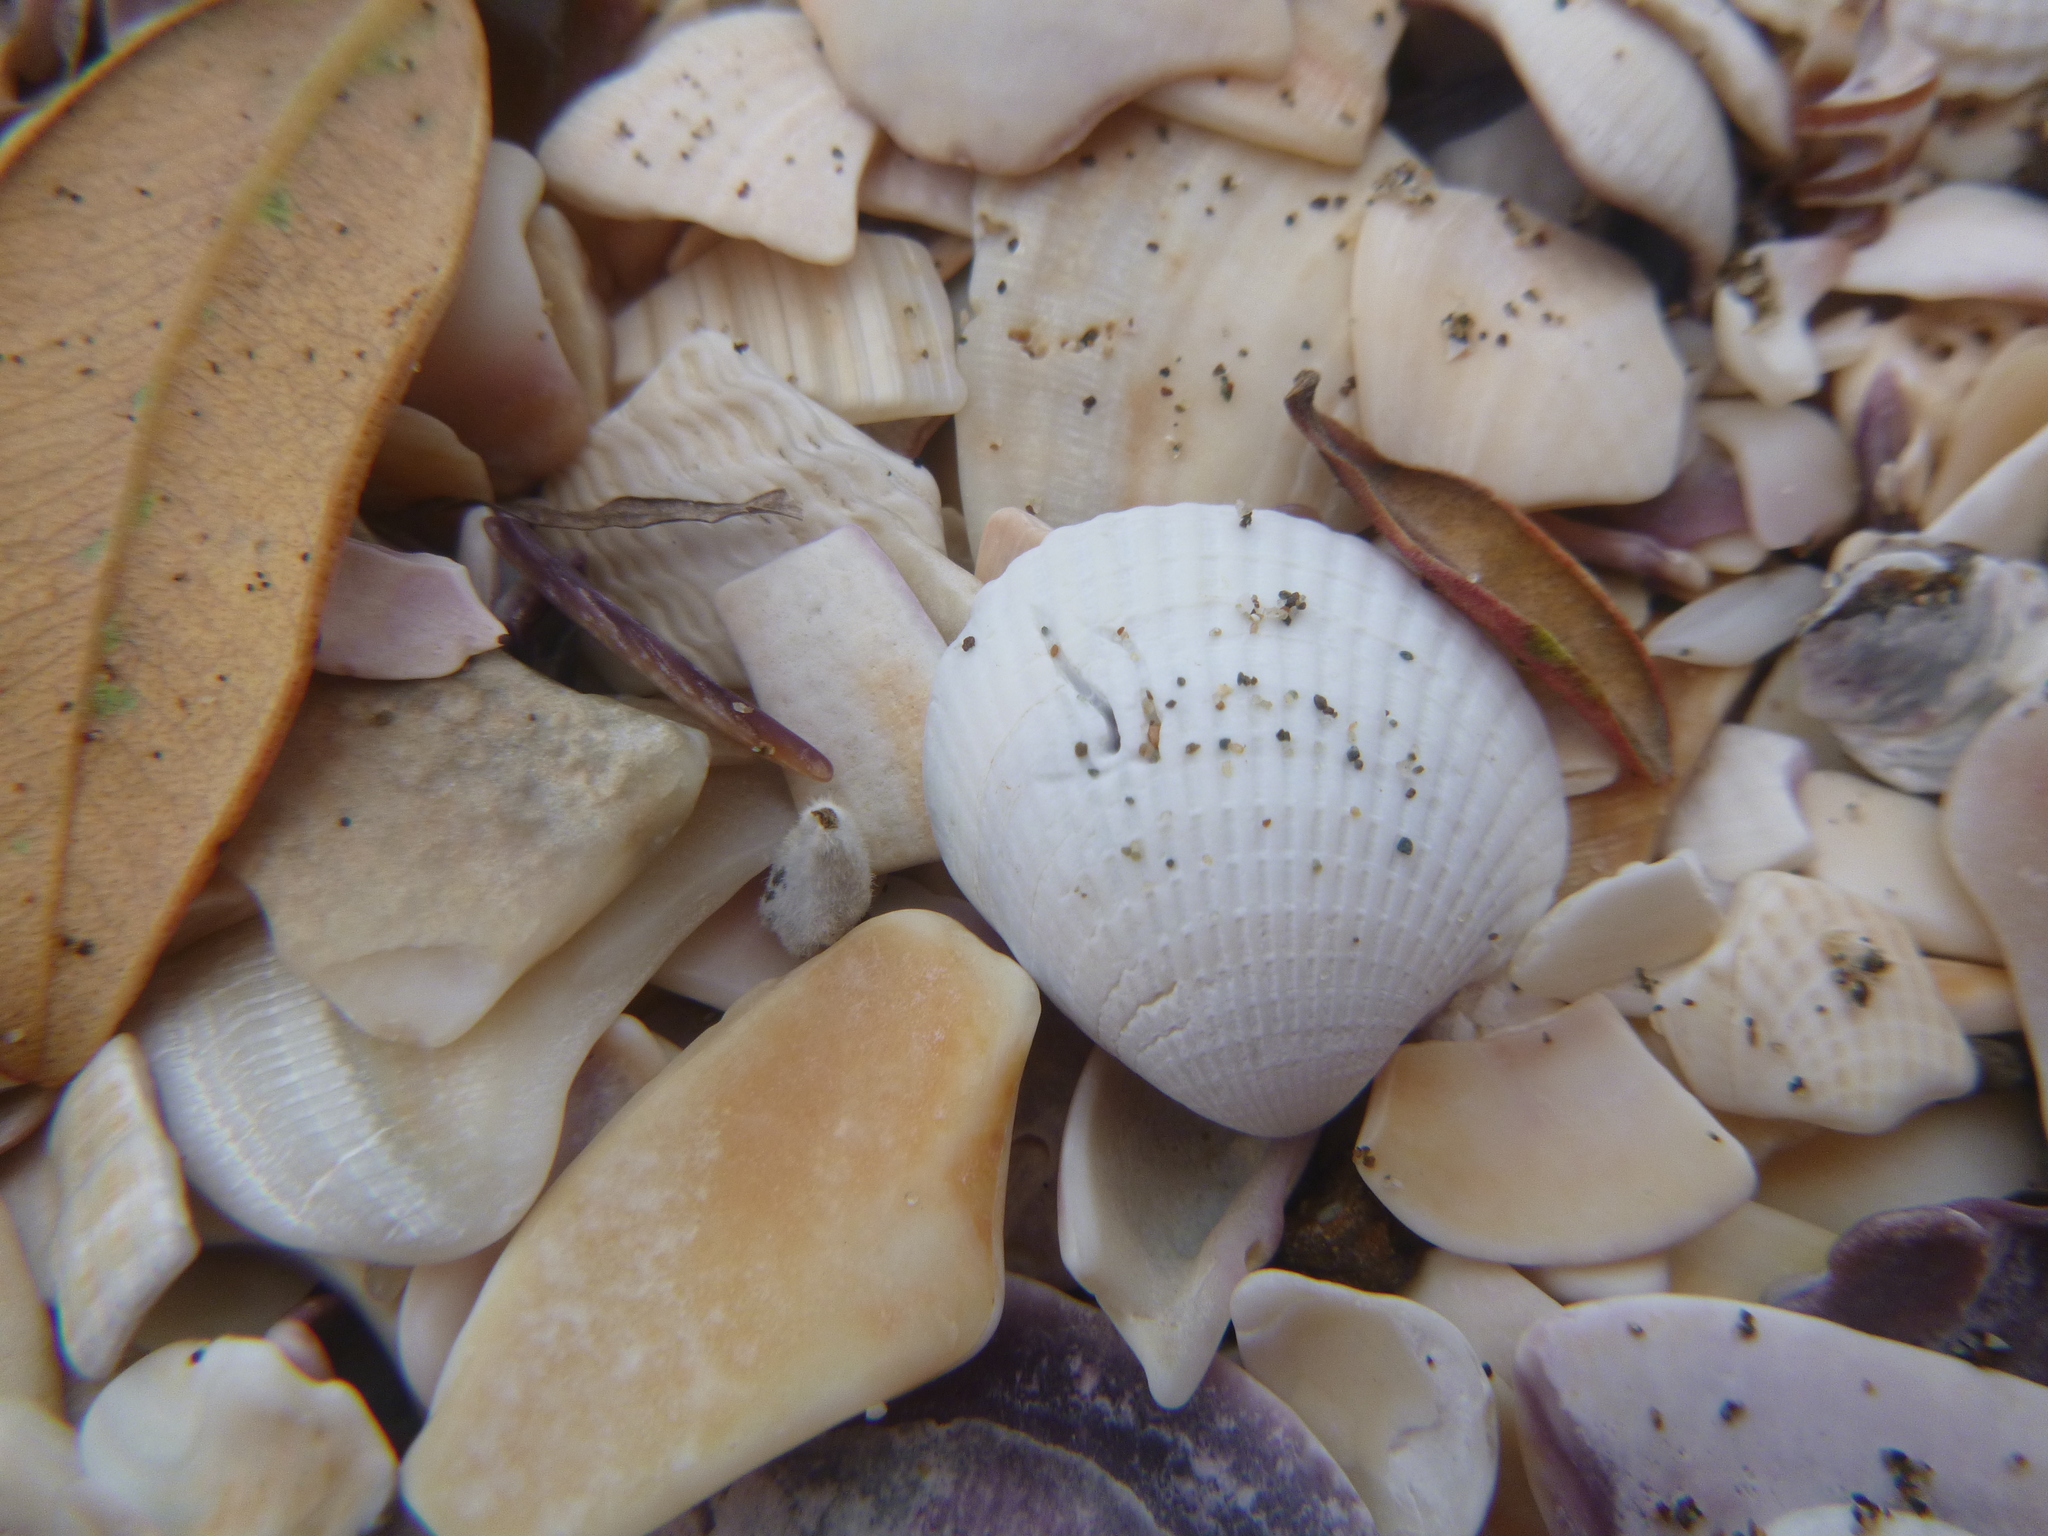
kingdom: Animalia
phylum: Mollusca
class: Bivalvia
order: Venerida
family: Veneridae
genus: Austrovenus
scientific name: Austrovenus stutchburyi
